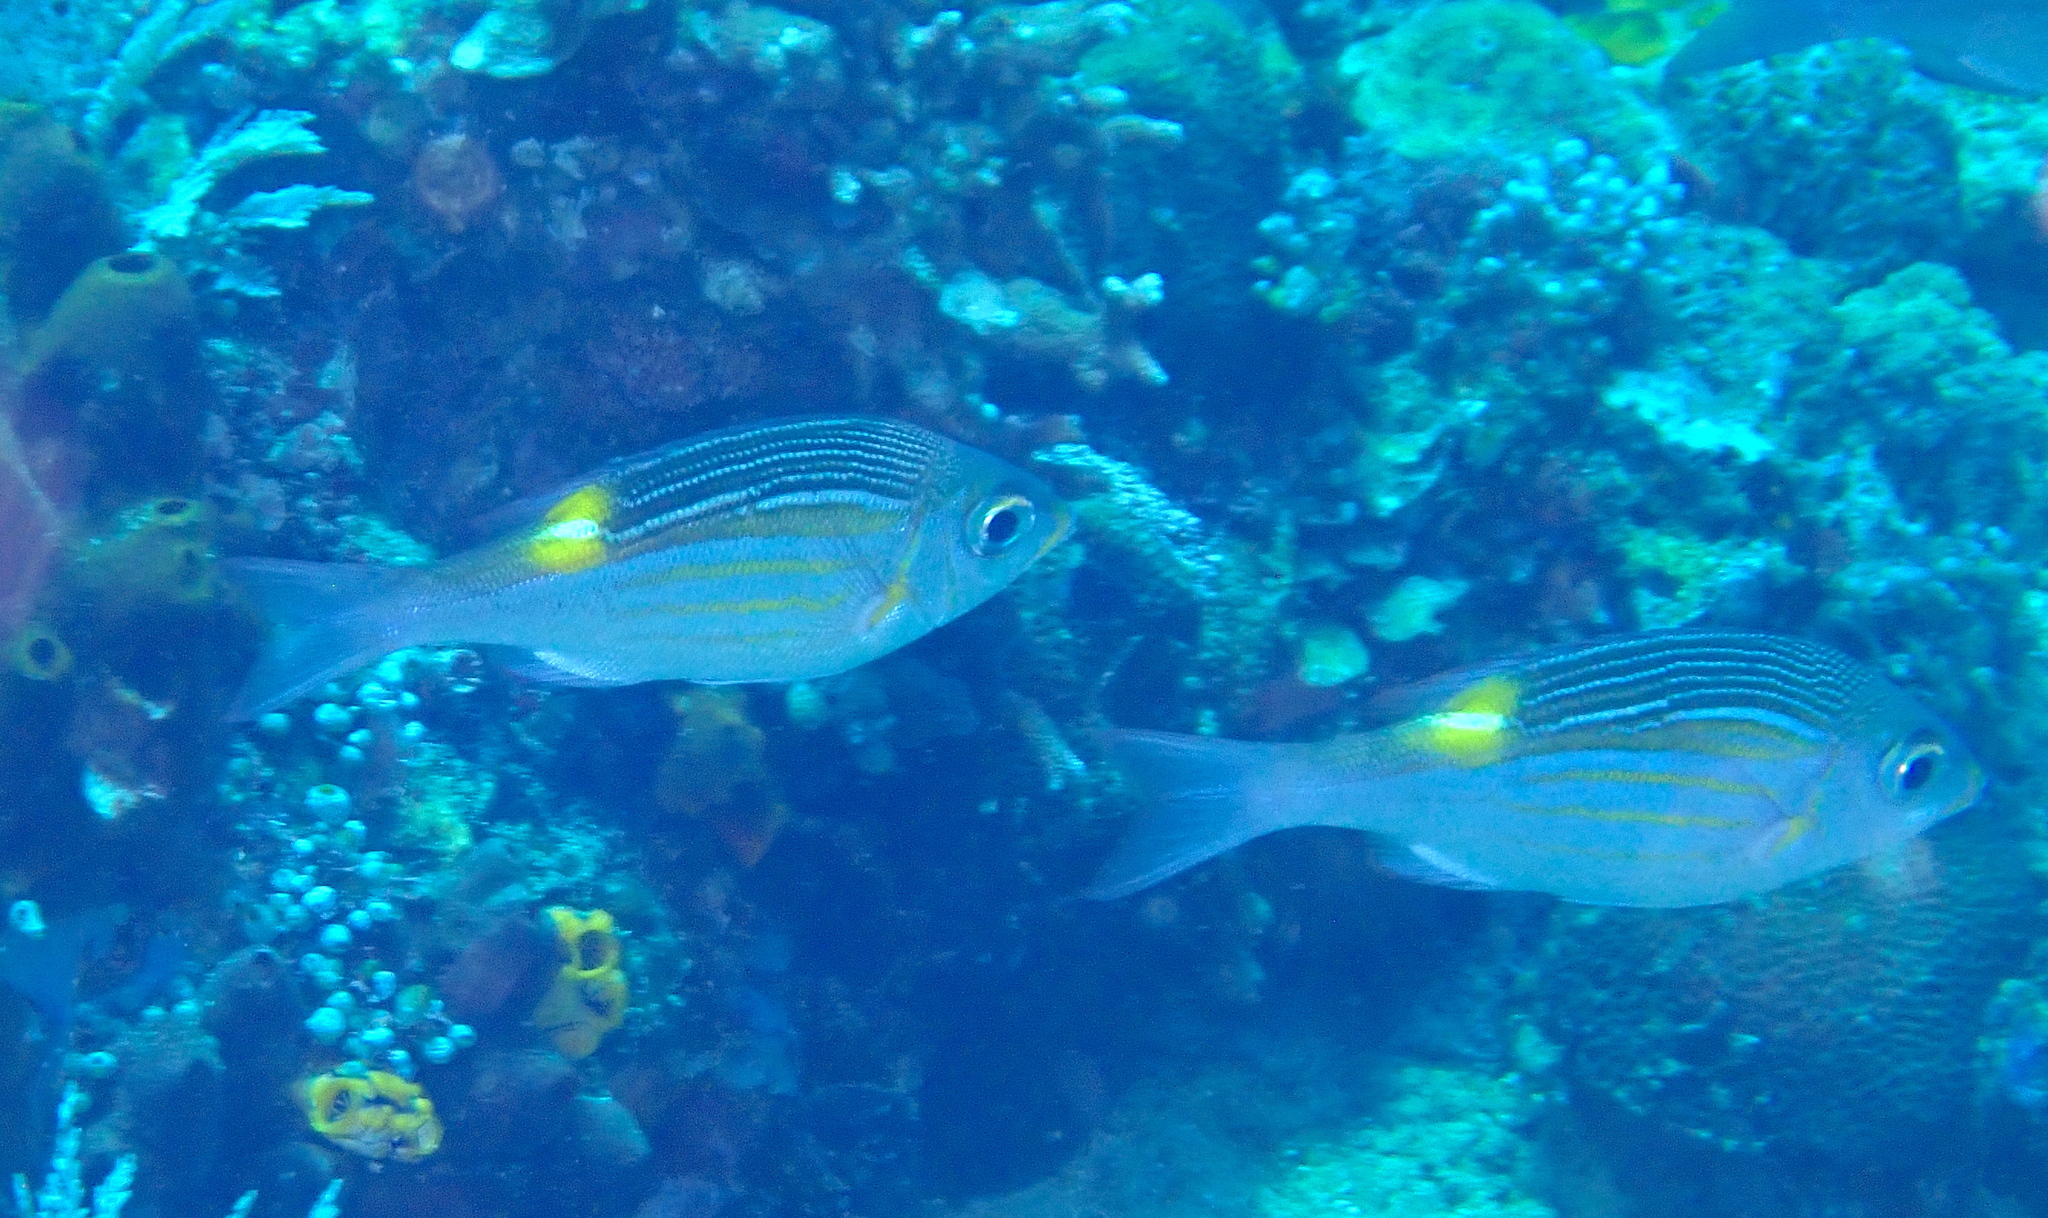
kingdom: Animalia
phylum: Chordata
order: Perciformes
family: Lethrinidae
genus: Gnathodentex
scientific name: Gnathodentex aureolineatus
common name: Gold-lined sea bream
